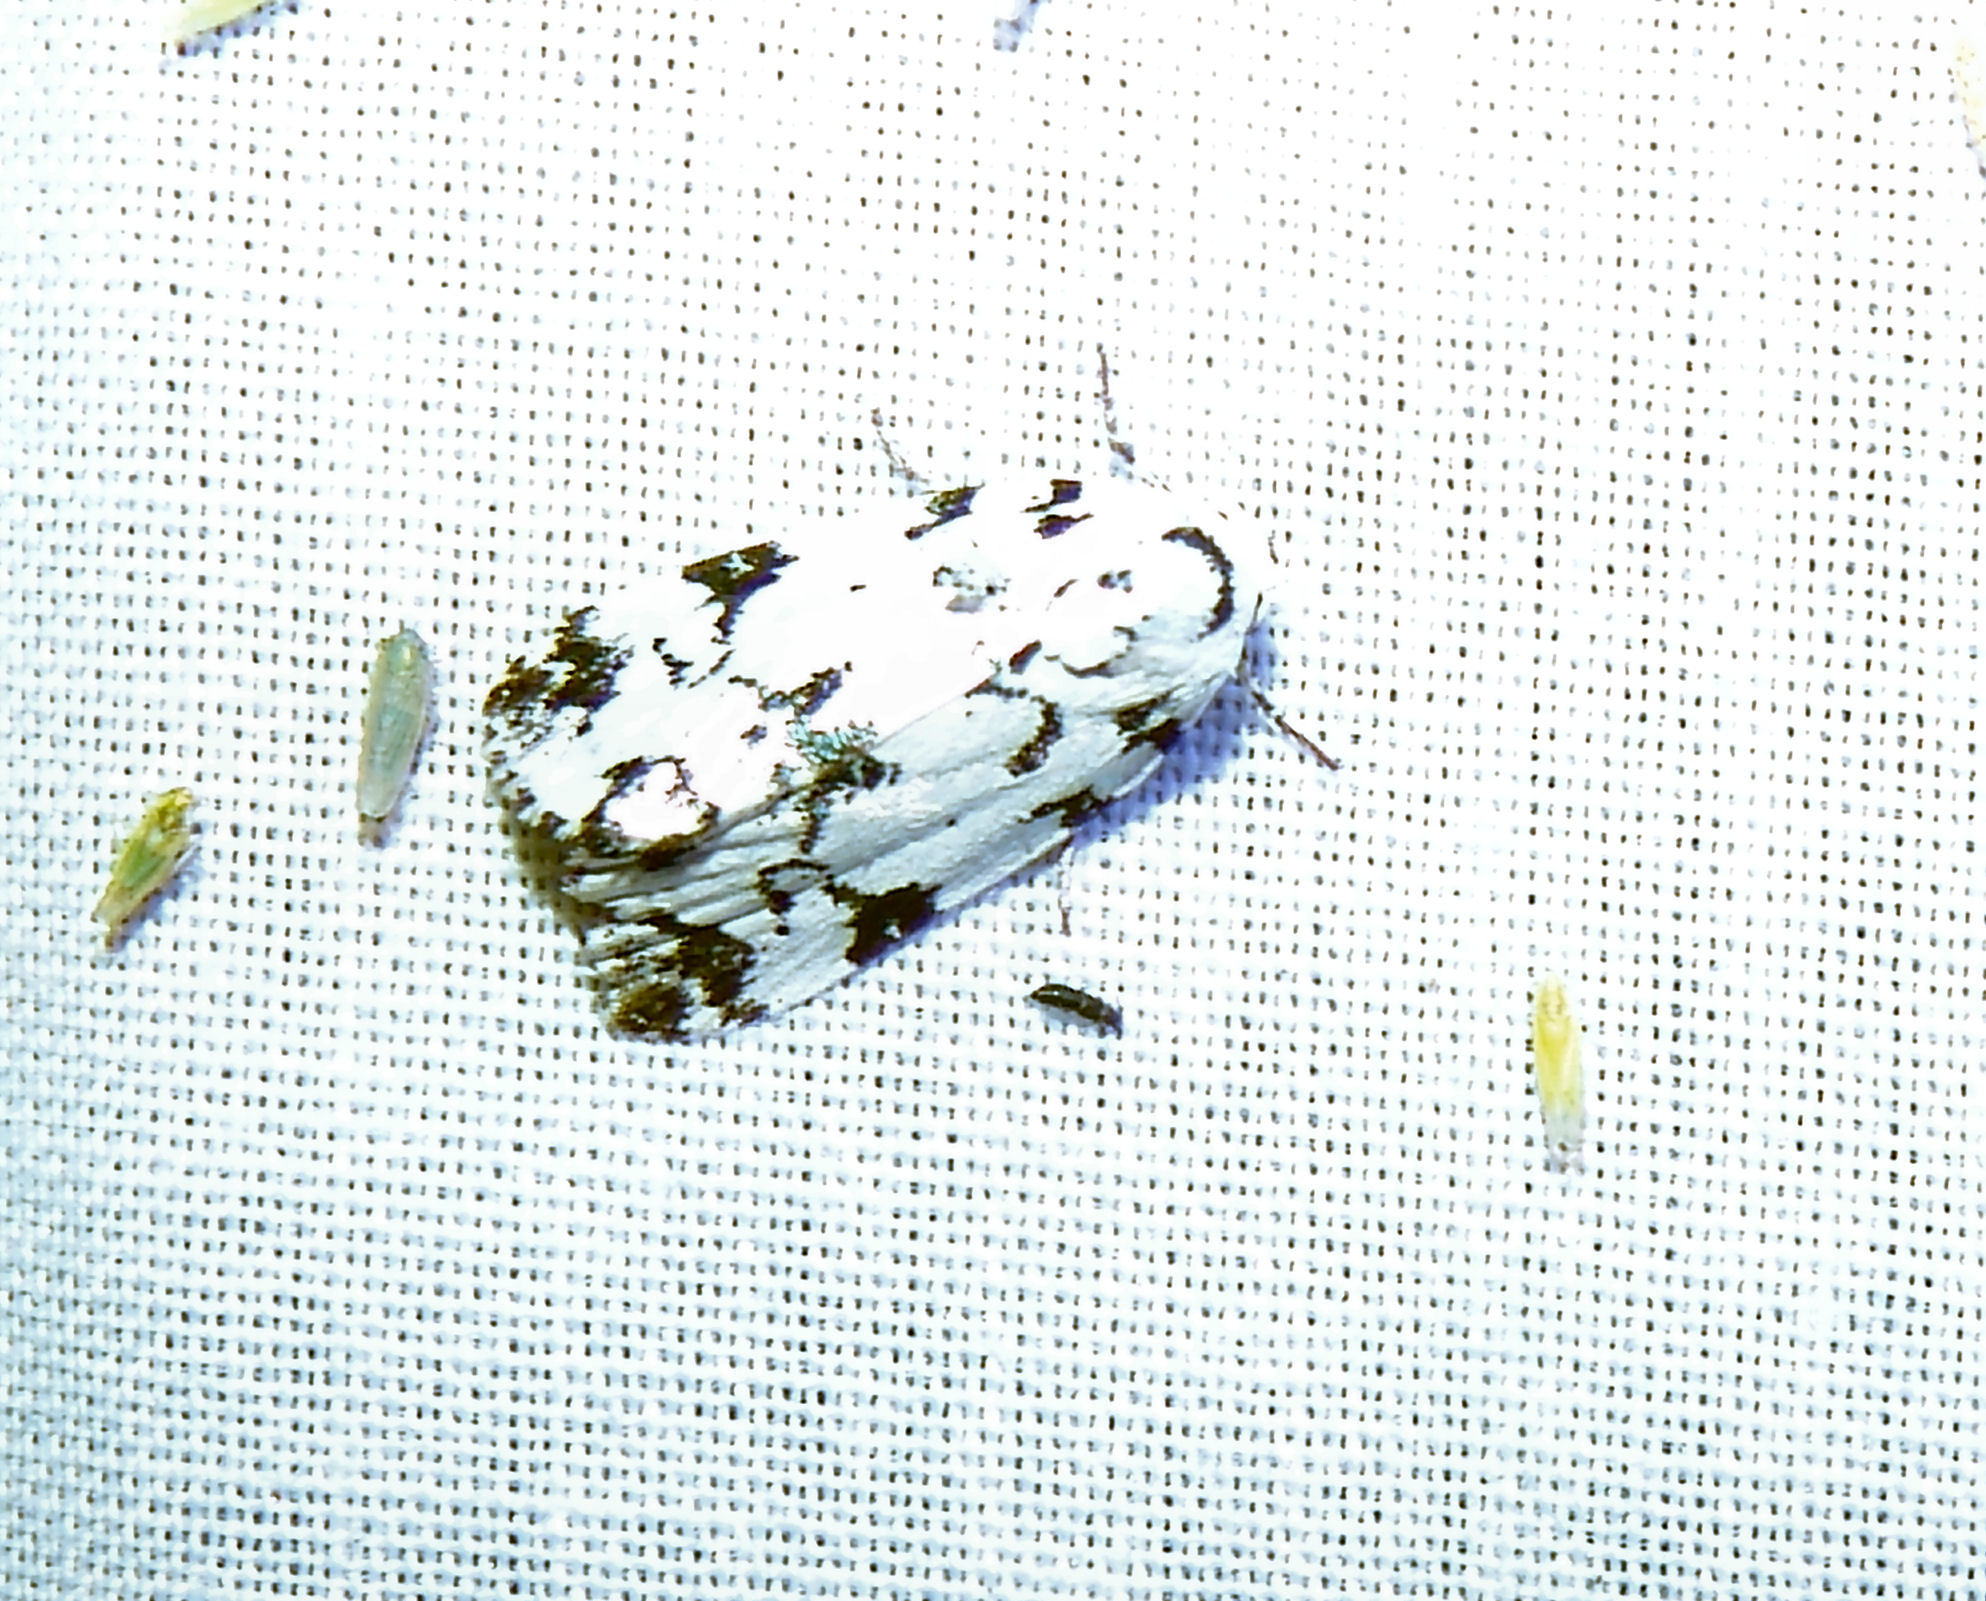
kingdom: Animalia
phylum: Arthropoda
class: Insecta
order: Lepidoptera
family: Noctuidae
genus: Polygrammate
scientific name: Polygrammate hebraeicum
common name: Hebrew moth
